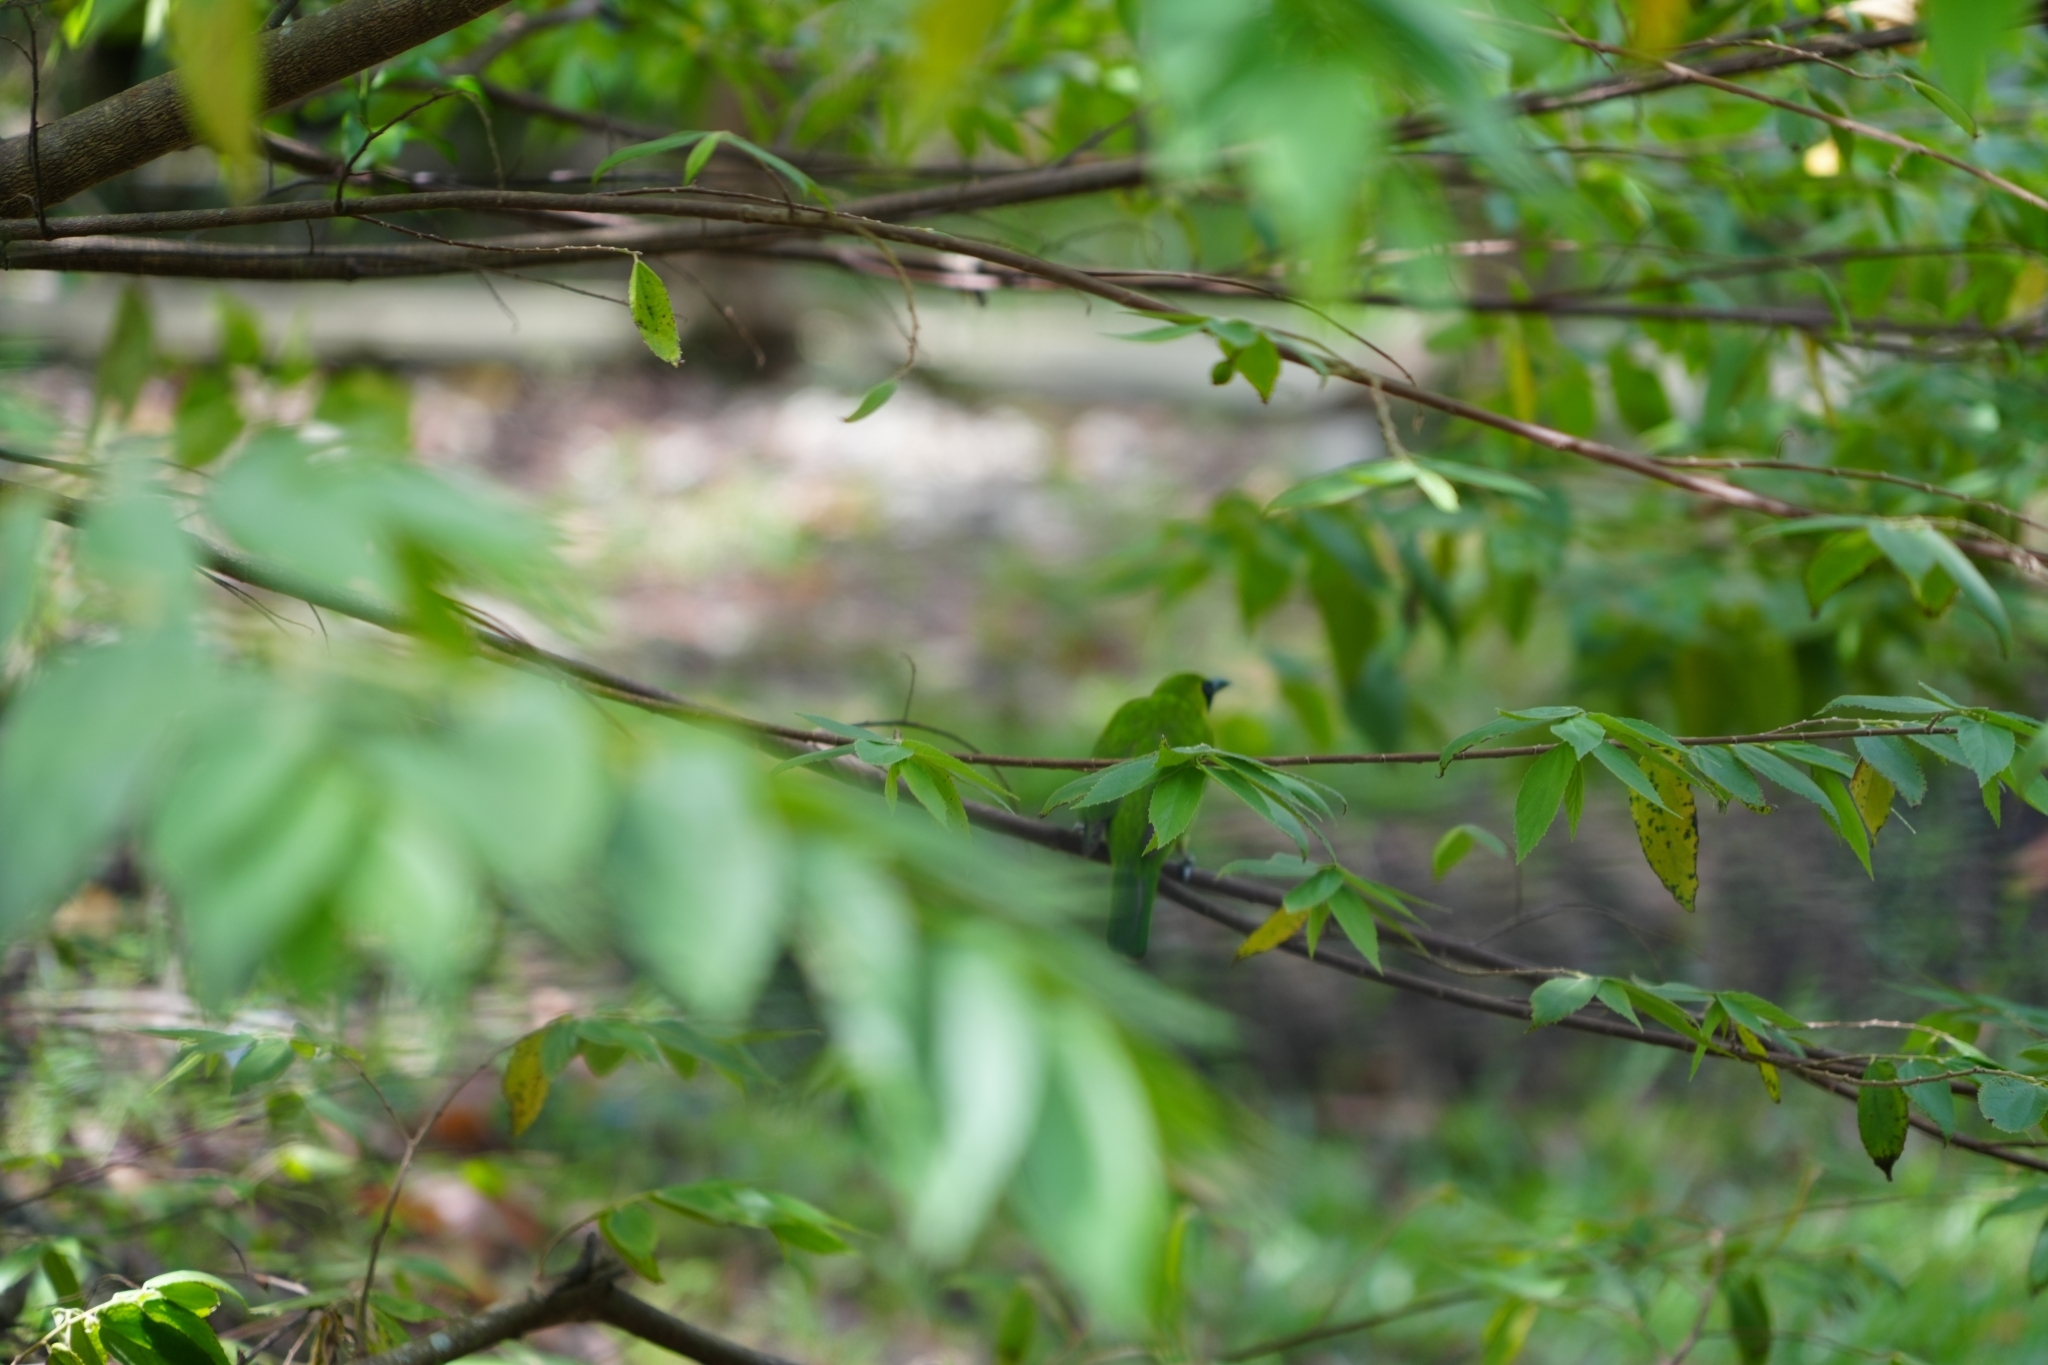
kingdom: Animalia
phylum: Chordata
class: Aves
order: Passeriformes
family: Chloropseidae
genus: Chloropsis
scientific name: Chloropsis sonnerati
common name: Greater green leafbird
